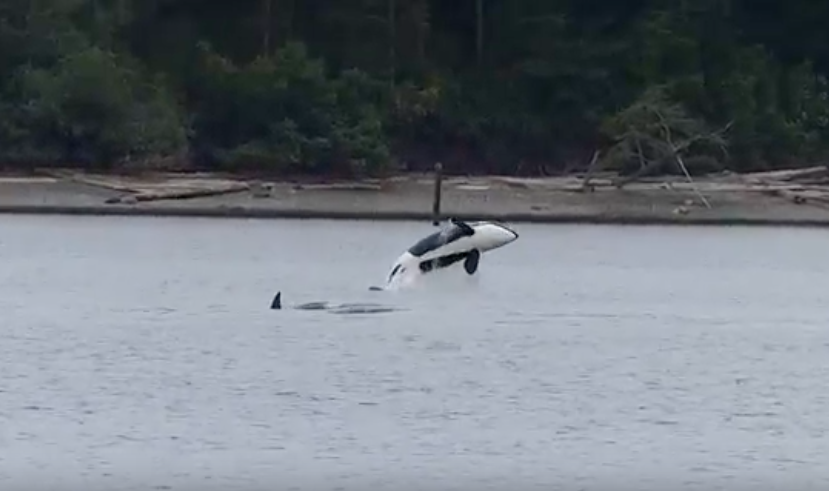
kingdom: Animalia
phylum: Chordata
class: Mammalia
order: Cetacea
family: Delphinidae
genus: Orcinus
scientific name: Orcinus orca
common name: Killer whale
